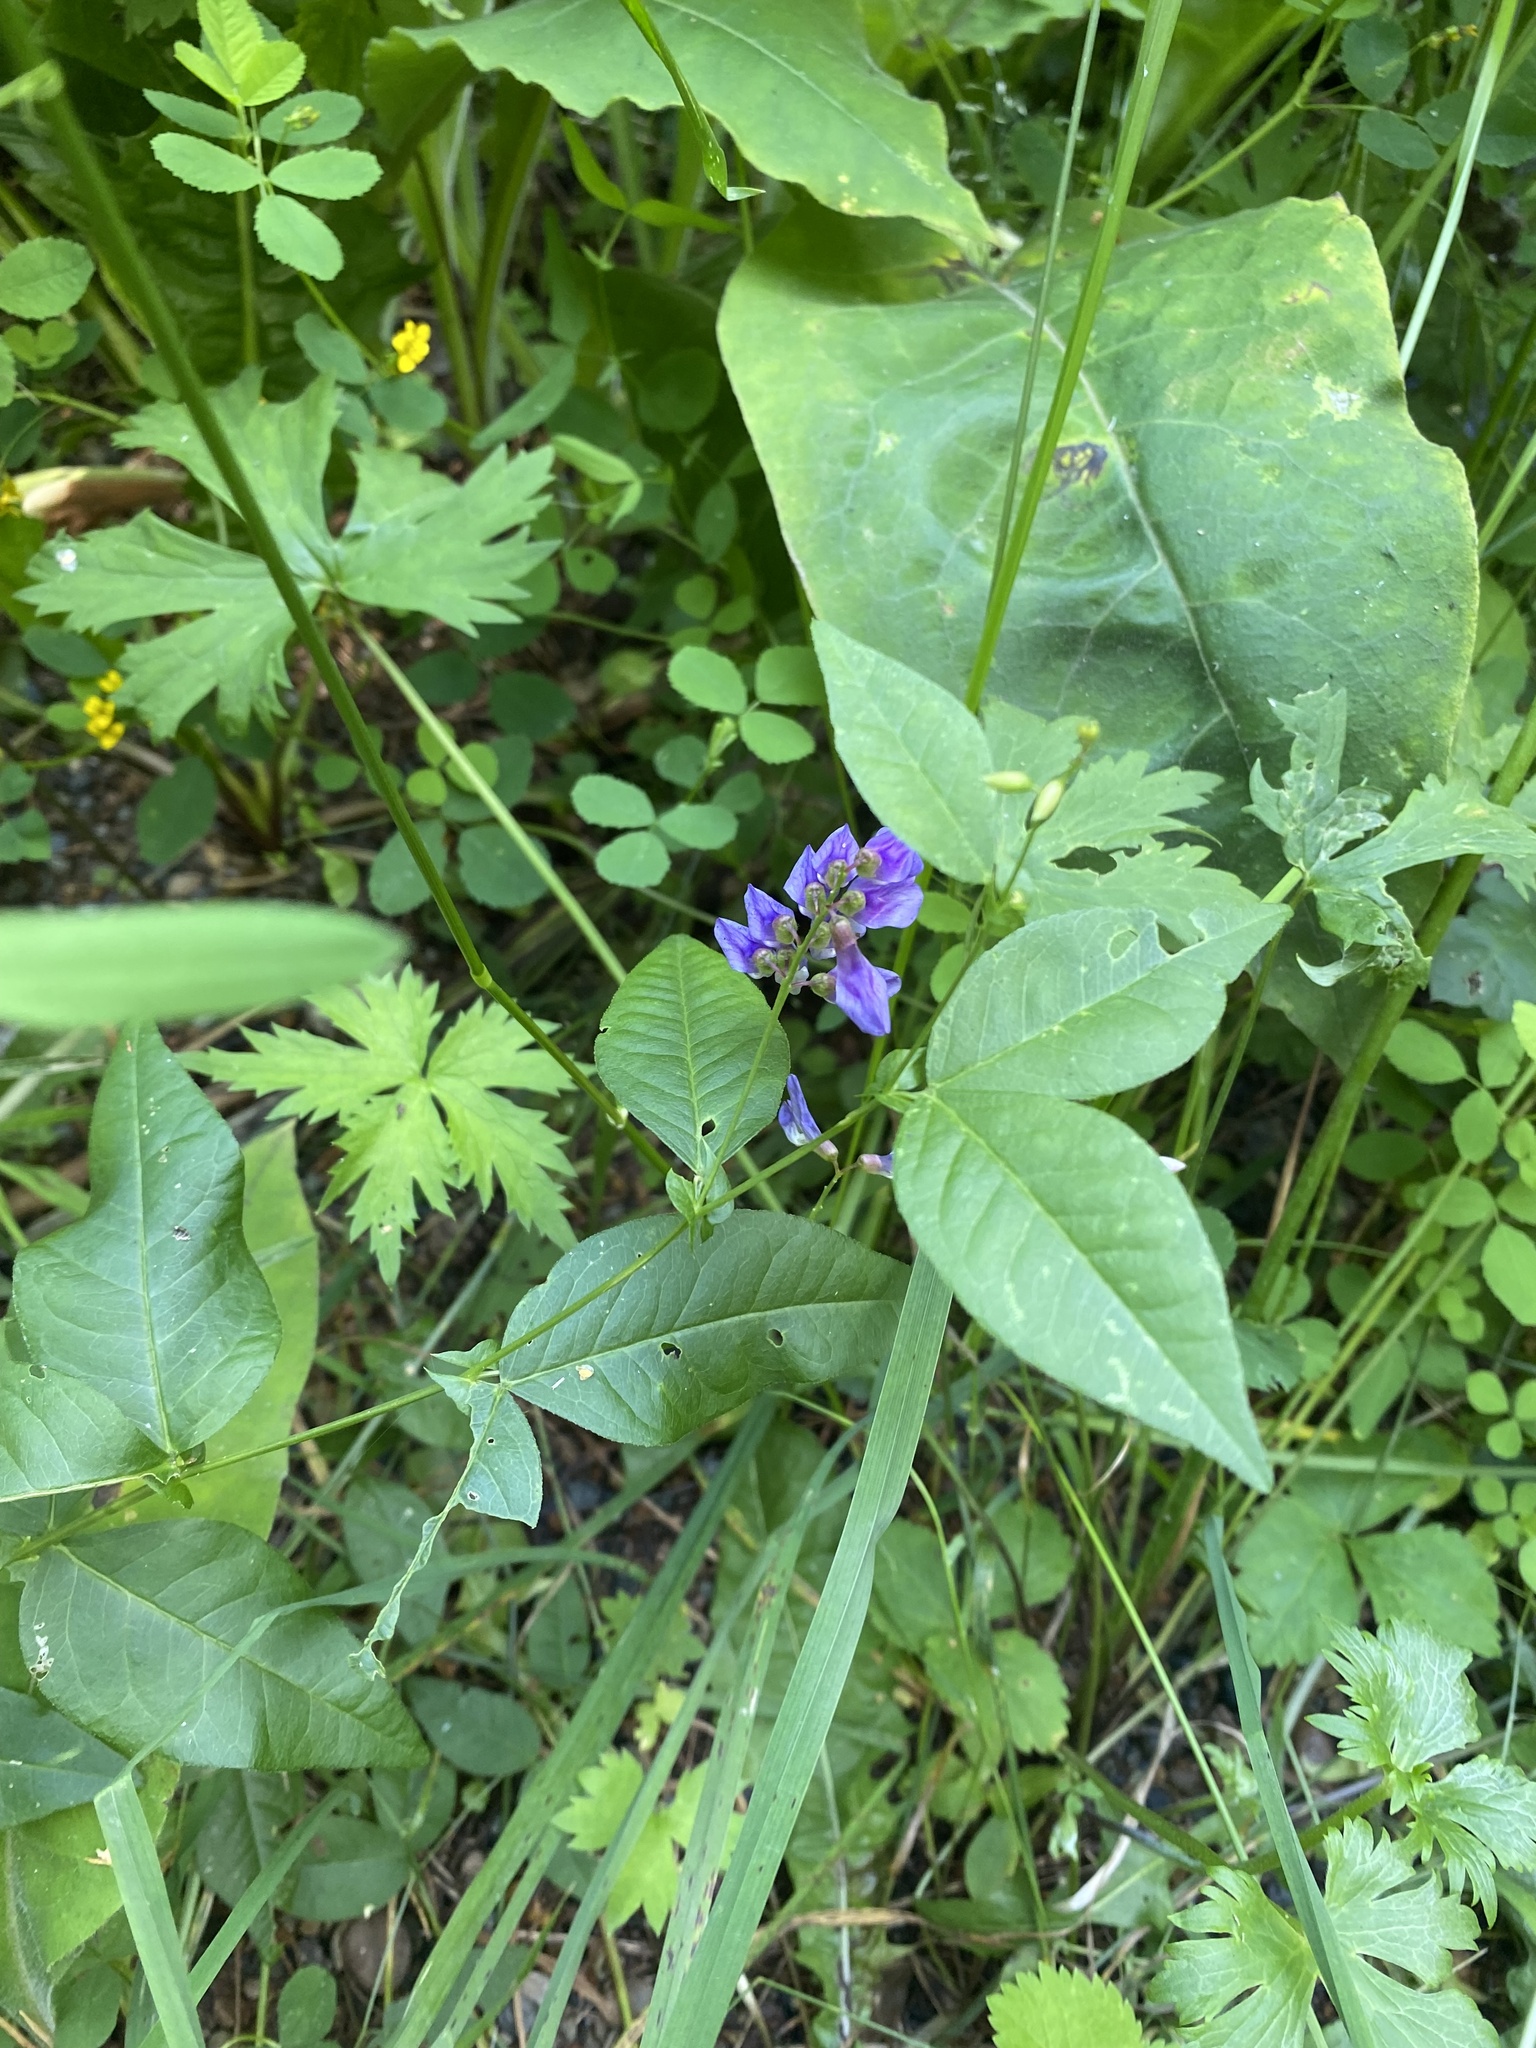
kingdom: Plantae
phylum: Tracheophyta
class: Magnoliopsida
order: Fabales
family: Fabaceae
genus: Vicia
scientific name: Vicia unijuga
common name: Two-leaf vetch
